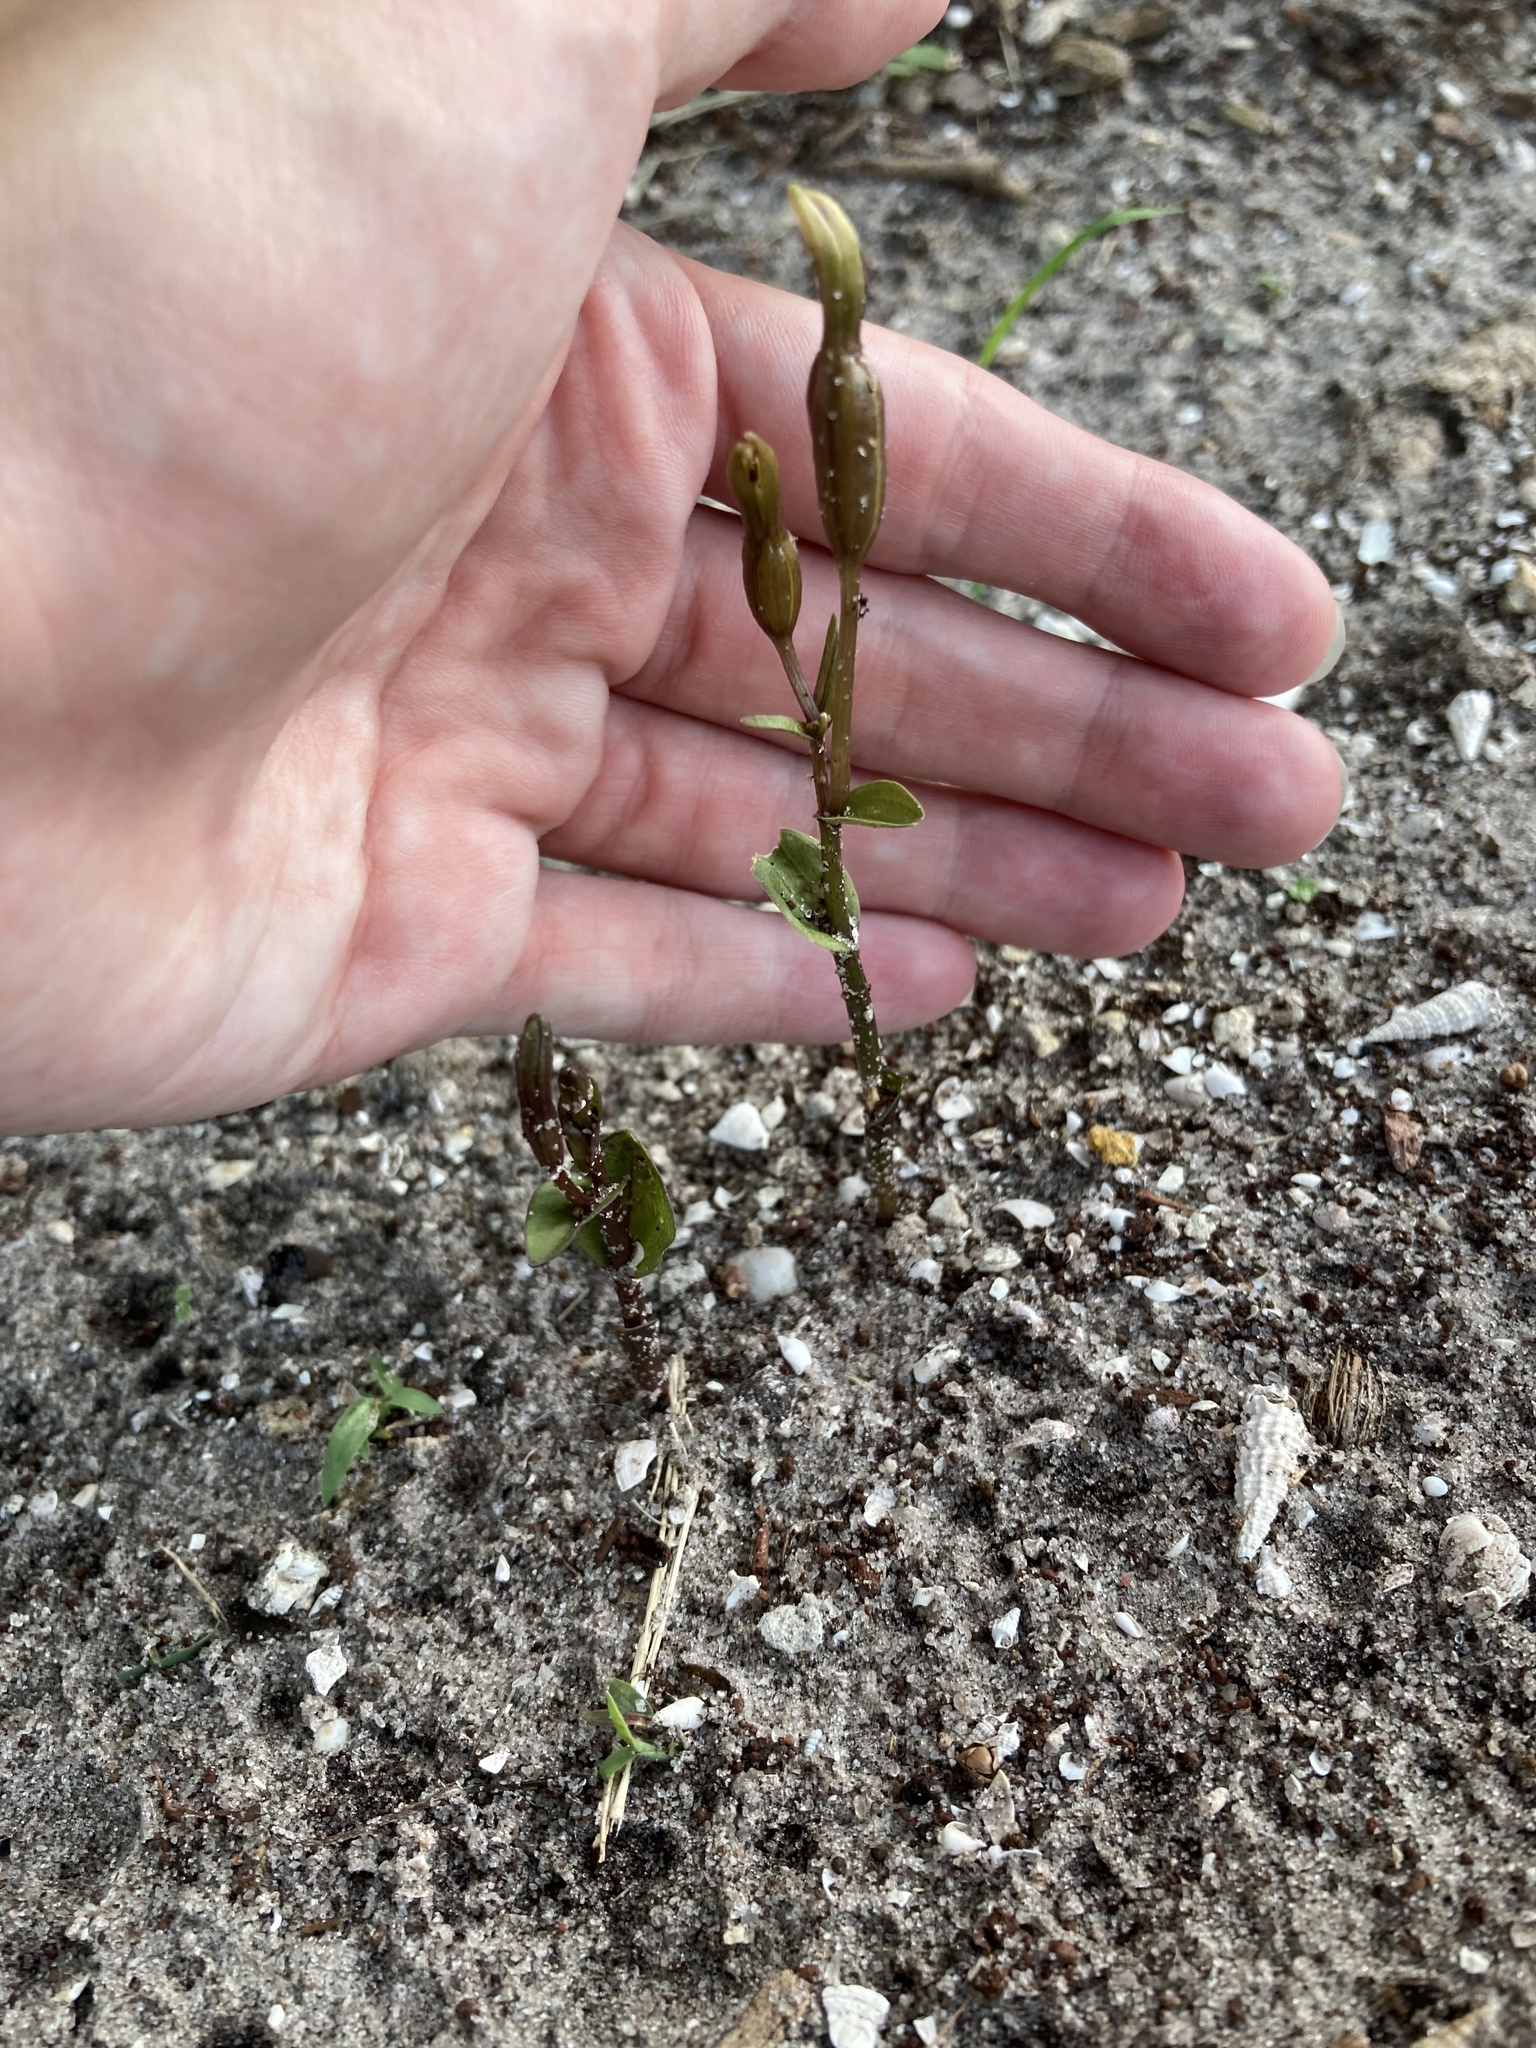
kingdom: Plantae
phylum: Tracheophyta
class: Liliopsida
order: Asparagales
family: Orchidaceae
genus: Triphora
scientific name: Triphora gentianoides
